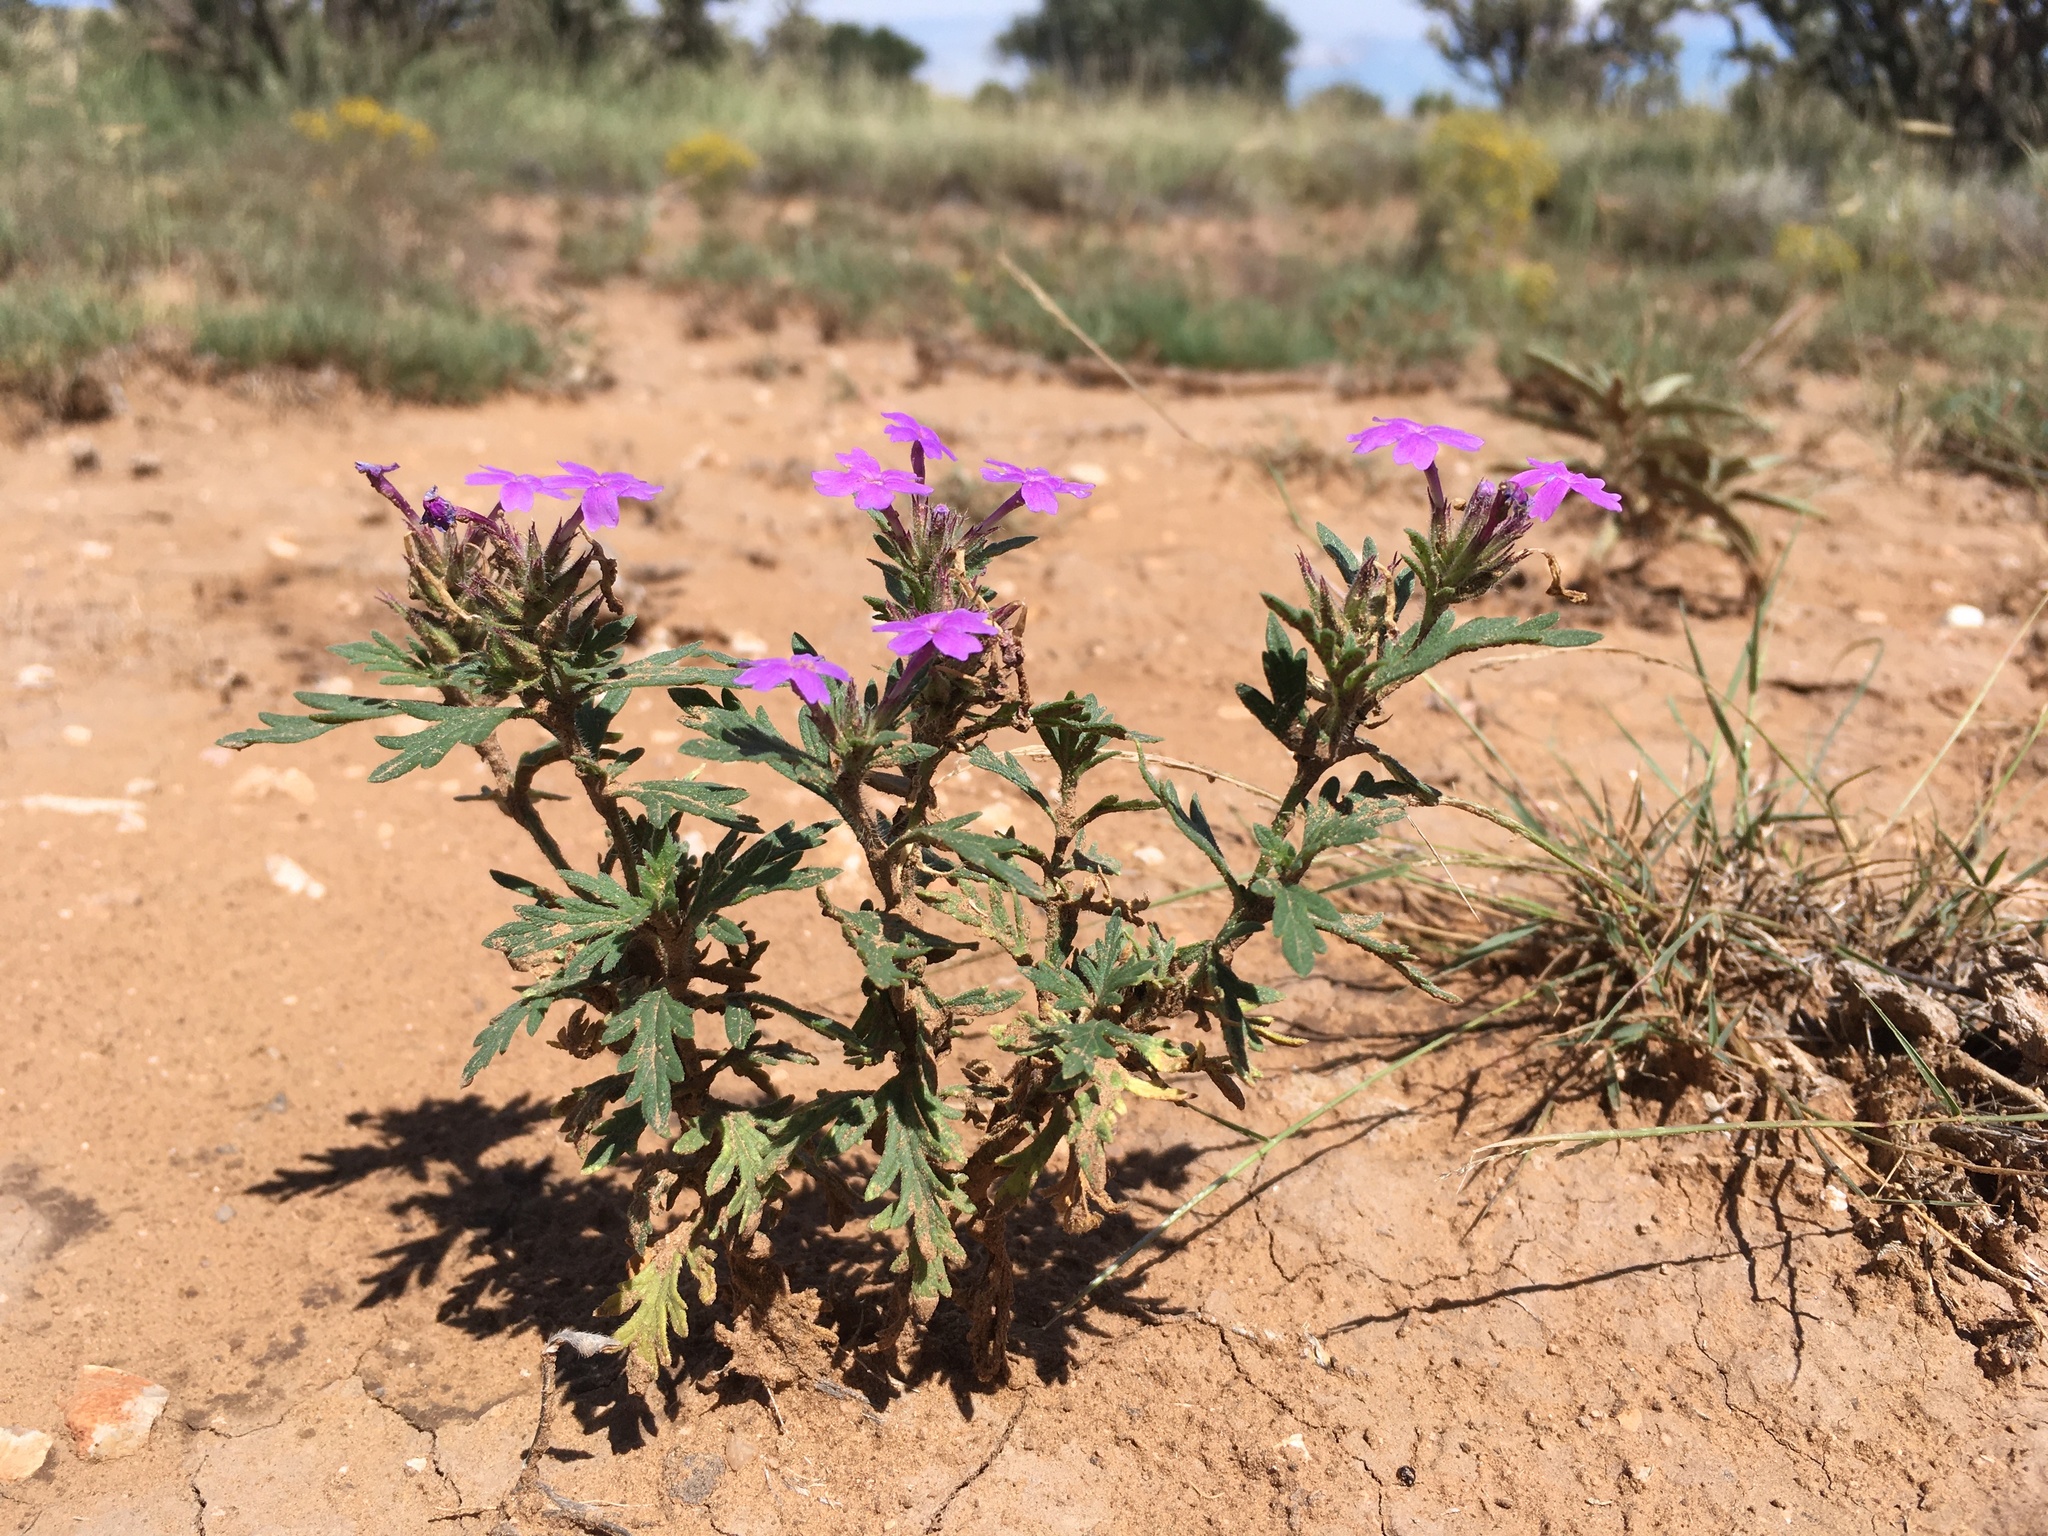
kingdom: Plantae
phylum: Tracheophyta
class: Magnoliopsida
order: Lamiales
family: Verbenaceae
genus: Verbena
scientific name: Verbena bipinnatifida
